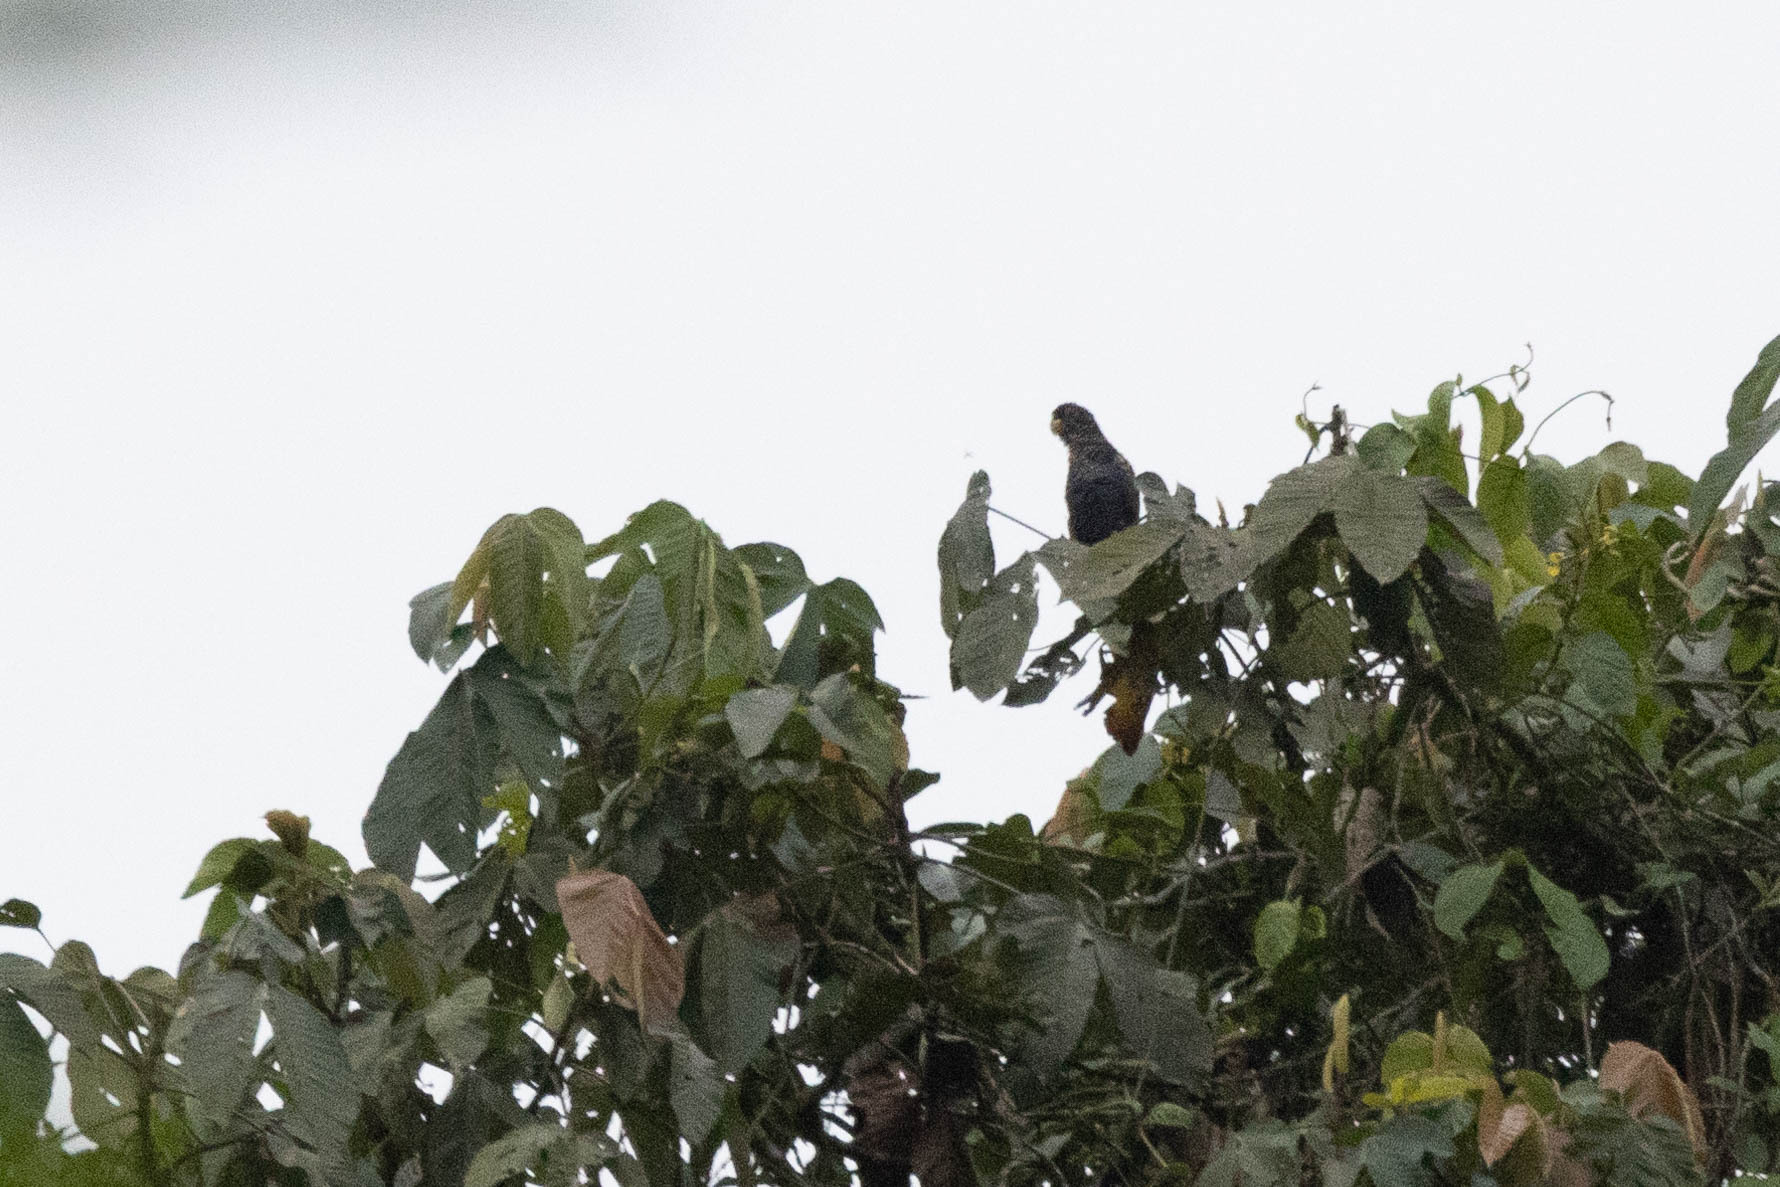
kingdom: Animalia
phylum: Chordata
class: Aves
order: Psittaciformes
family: Psittacidae
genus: Pionus
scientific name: Pionus chalcopterus
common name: Bronze-winged parrot
